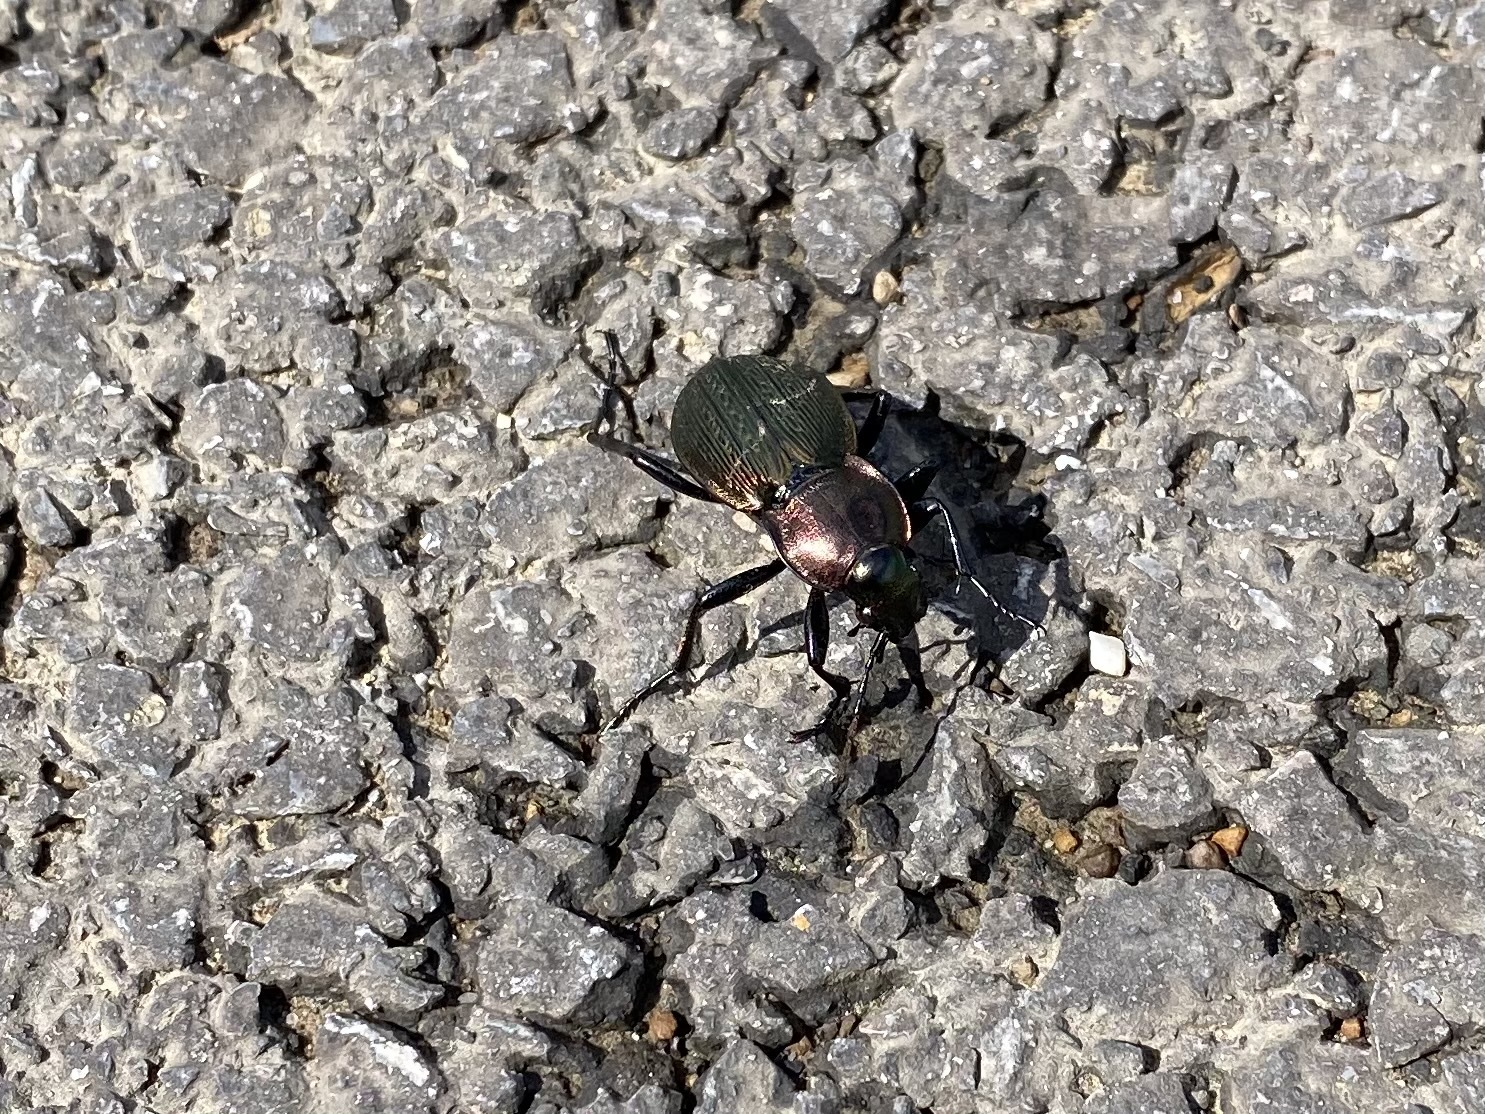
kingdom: Animalia
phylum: Arthropoda
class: Insecta
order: Coleoptera
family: Carabidae
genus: Carabus
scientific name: Carabus monilis
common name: Necklace ground beetle
